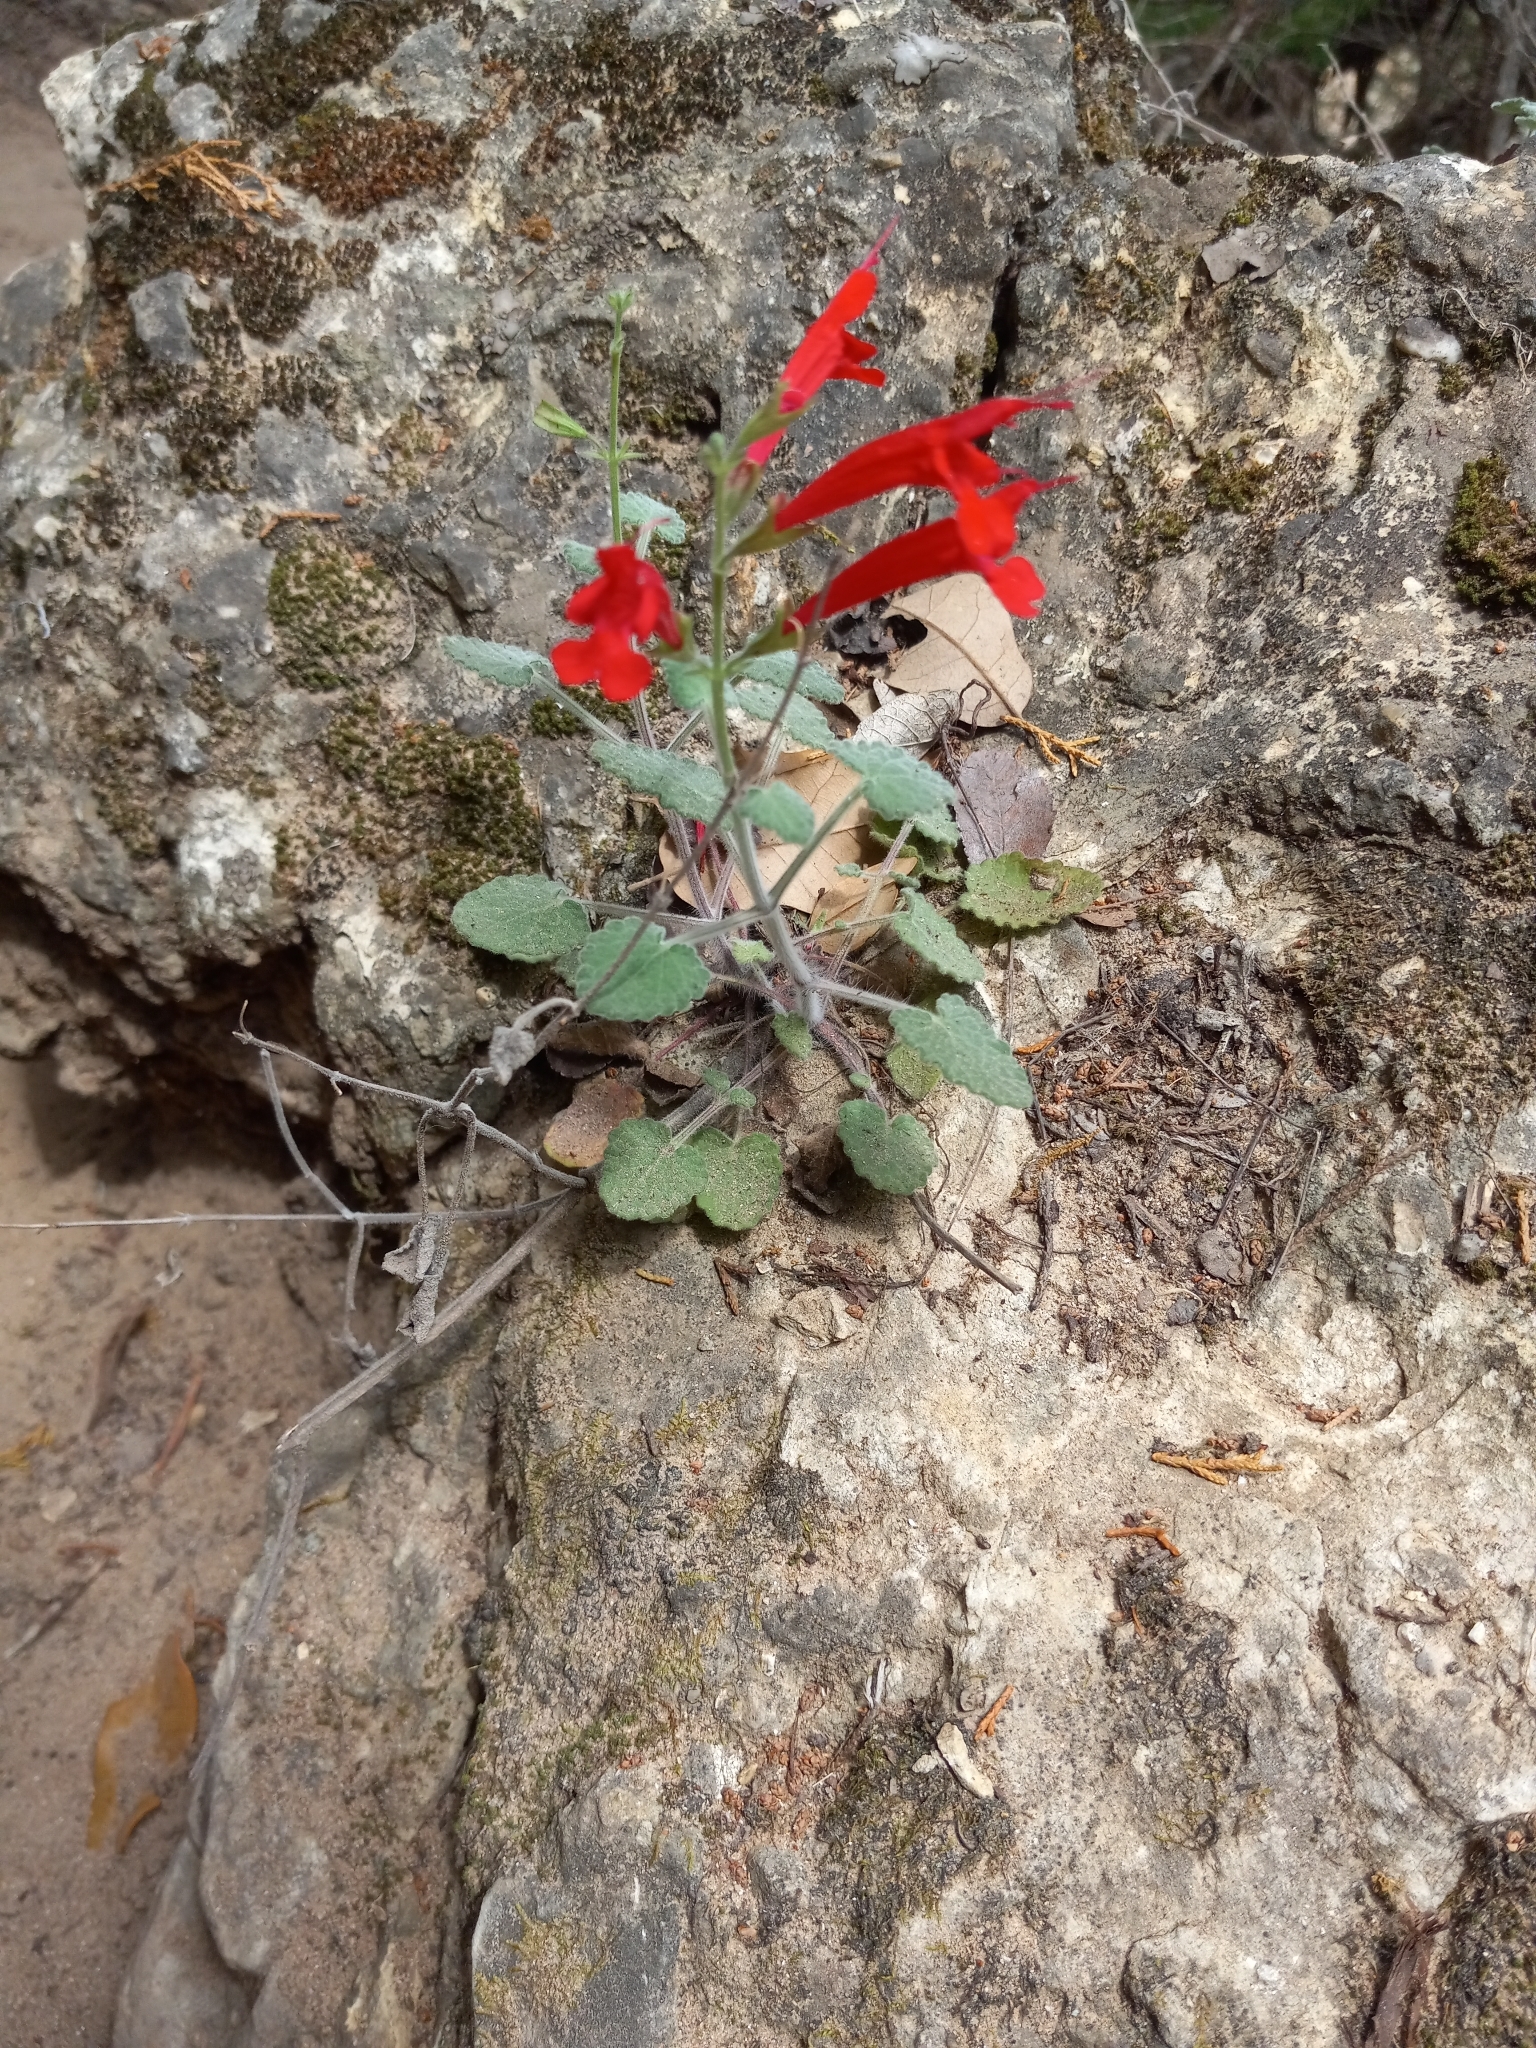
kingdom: Plantae
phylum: Tracheophyta
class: Magnoliopsida
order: Lamiales
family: Lamiaceae
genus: Salvia
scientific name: Salvia roemeriana
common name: Cedar sage
